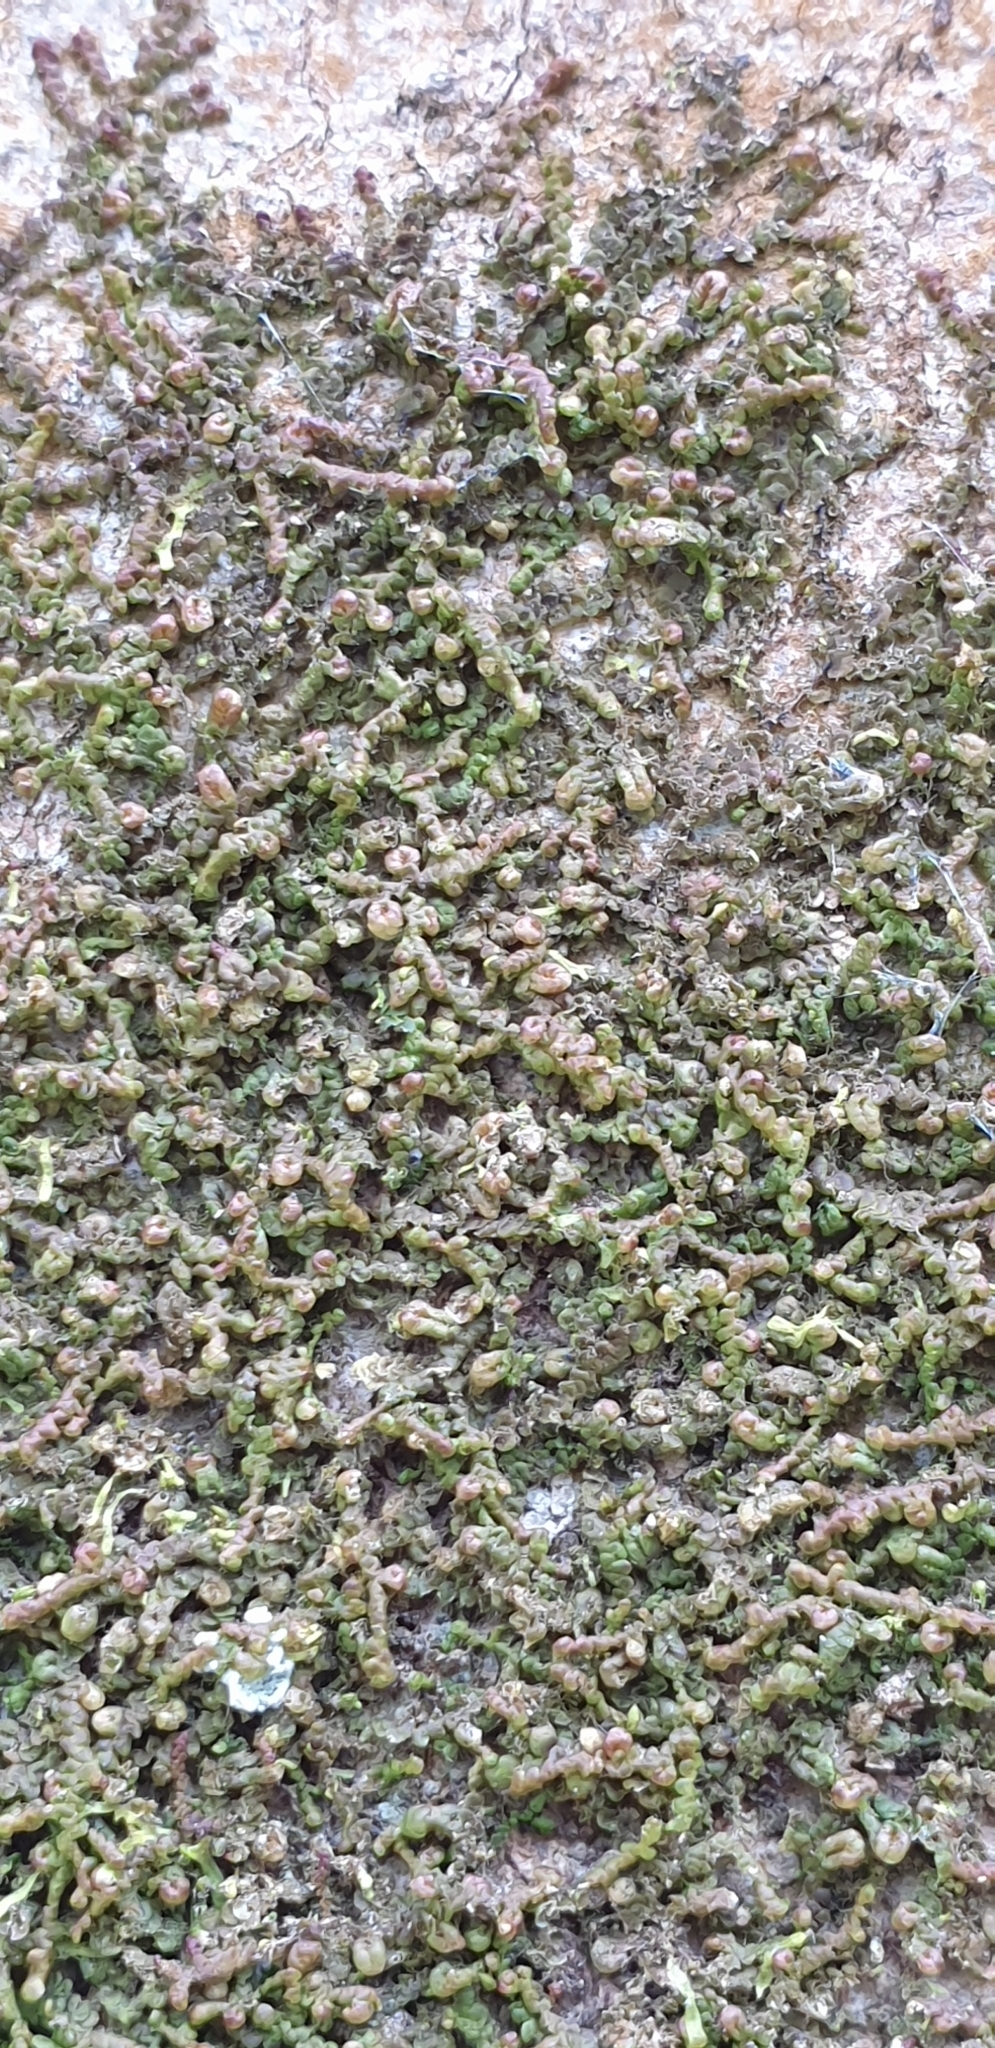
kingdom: Plantae
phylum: Marchantiophyta
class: Jungermanniopsida
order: Porellales
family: Frullaniaceae
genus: Frullania
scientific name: Frullania dilatata
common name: Dilated scalewort
